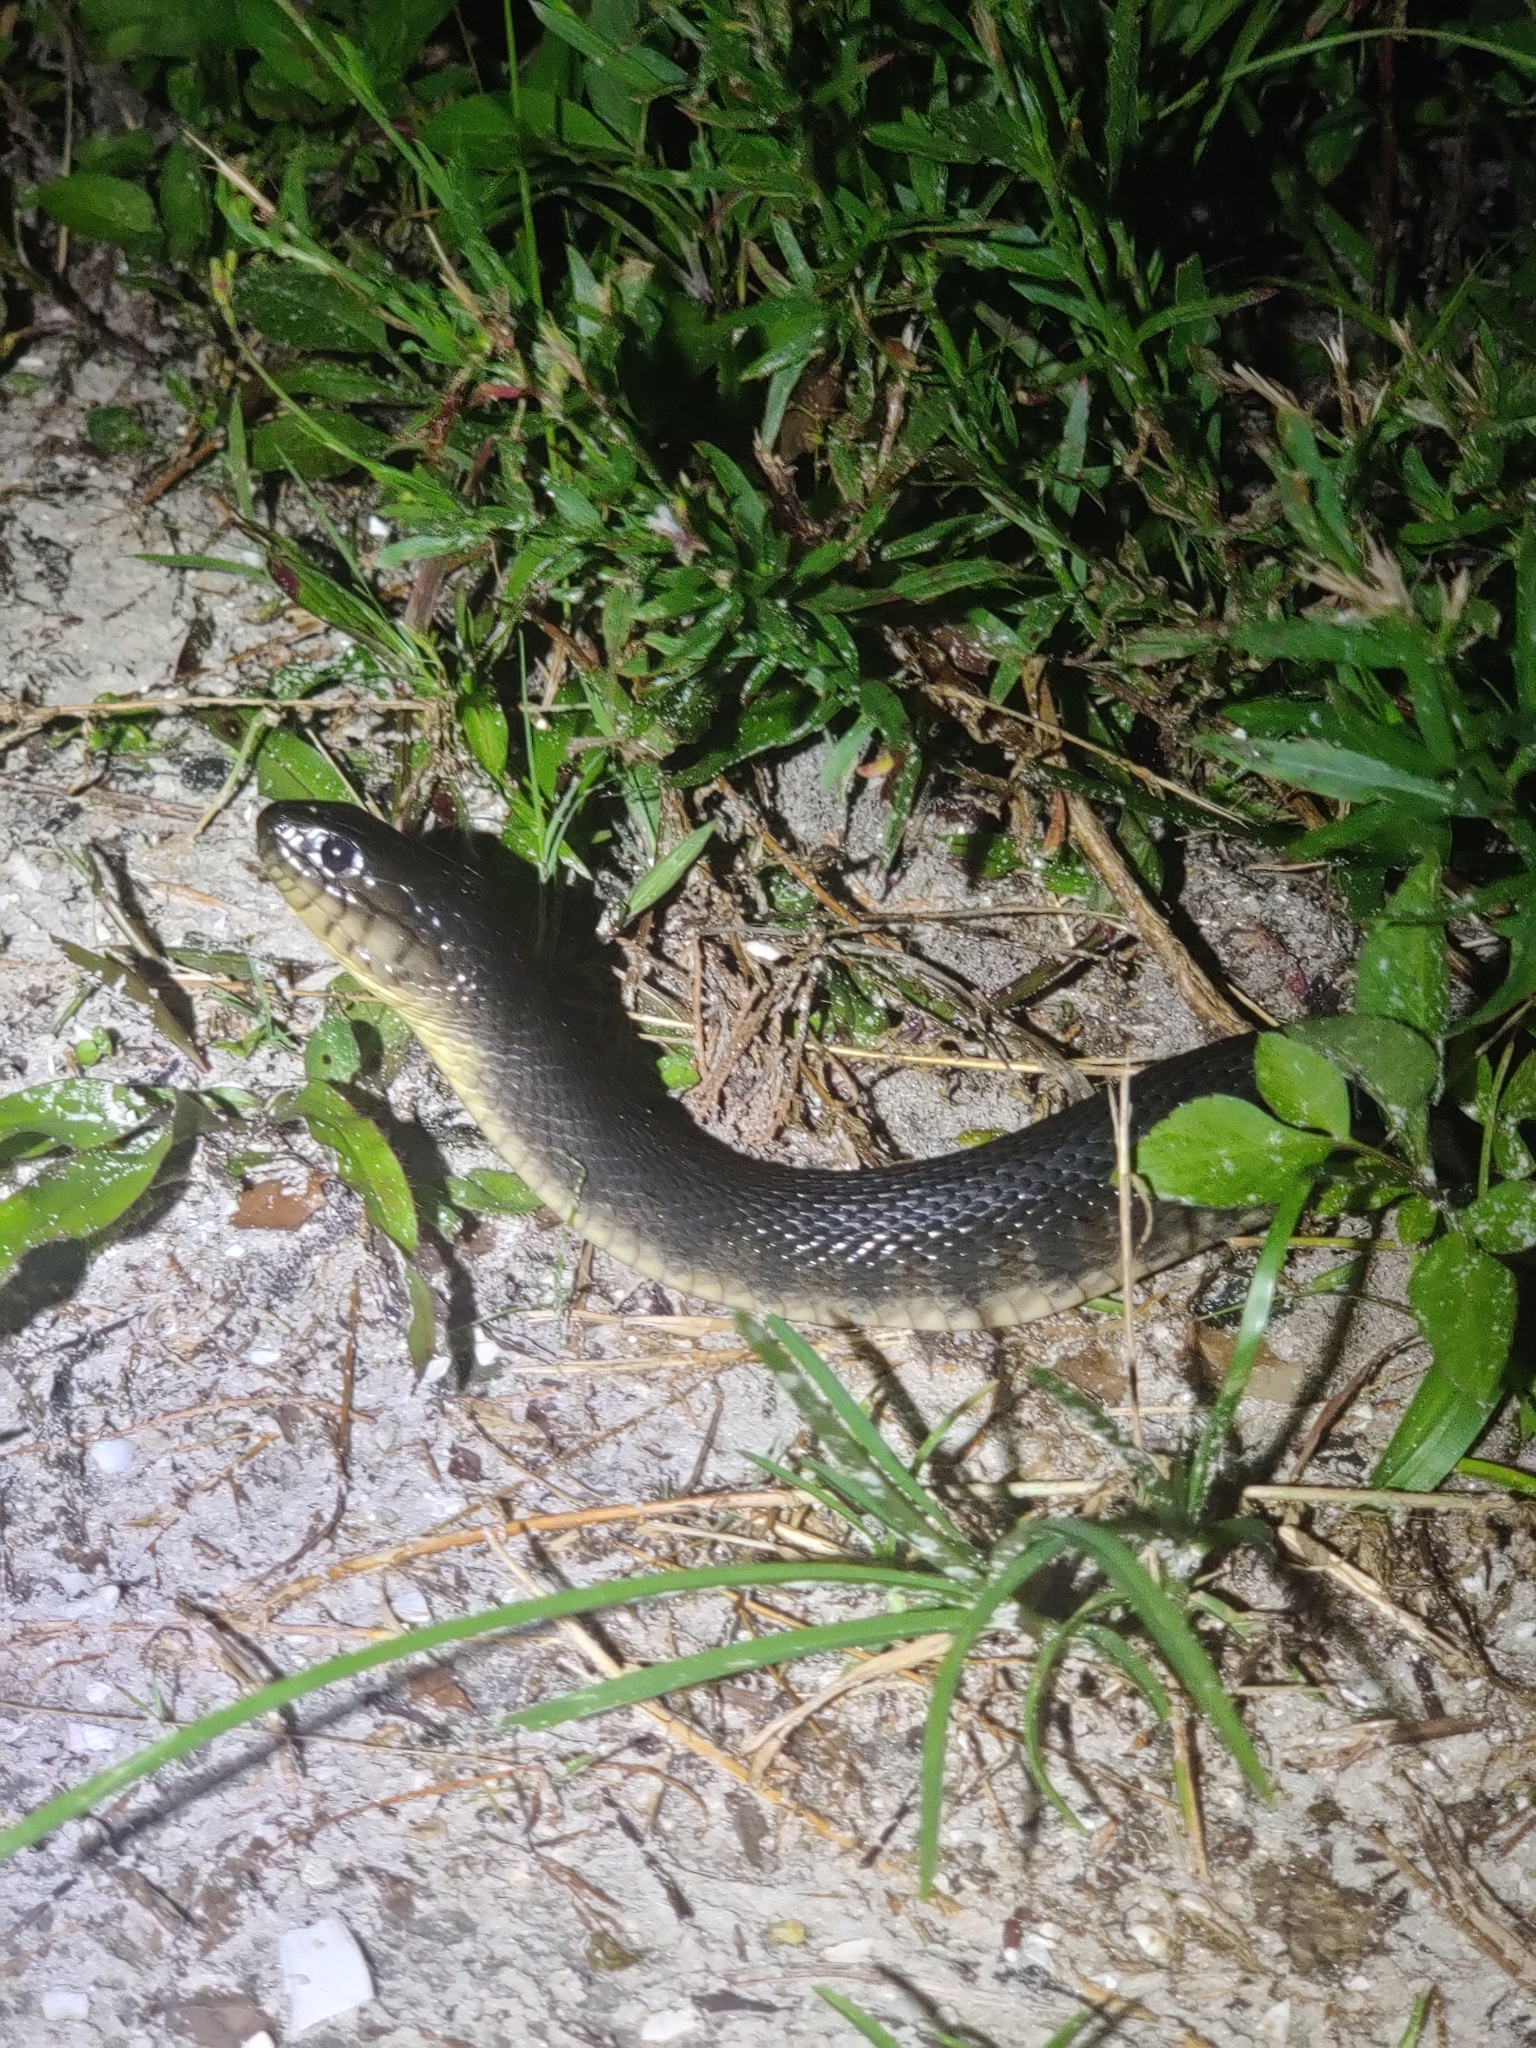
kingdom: Animalia
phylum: Chordata
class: Squamata
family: Colubridae
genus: Nerodia
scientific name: Nerodia floridana
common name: Florida green watersnake
